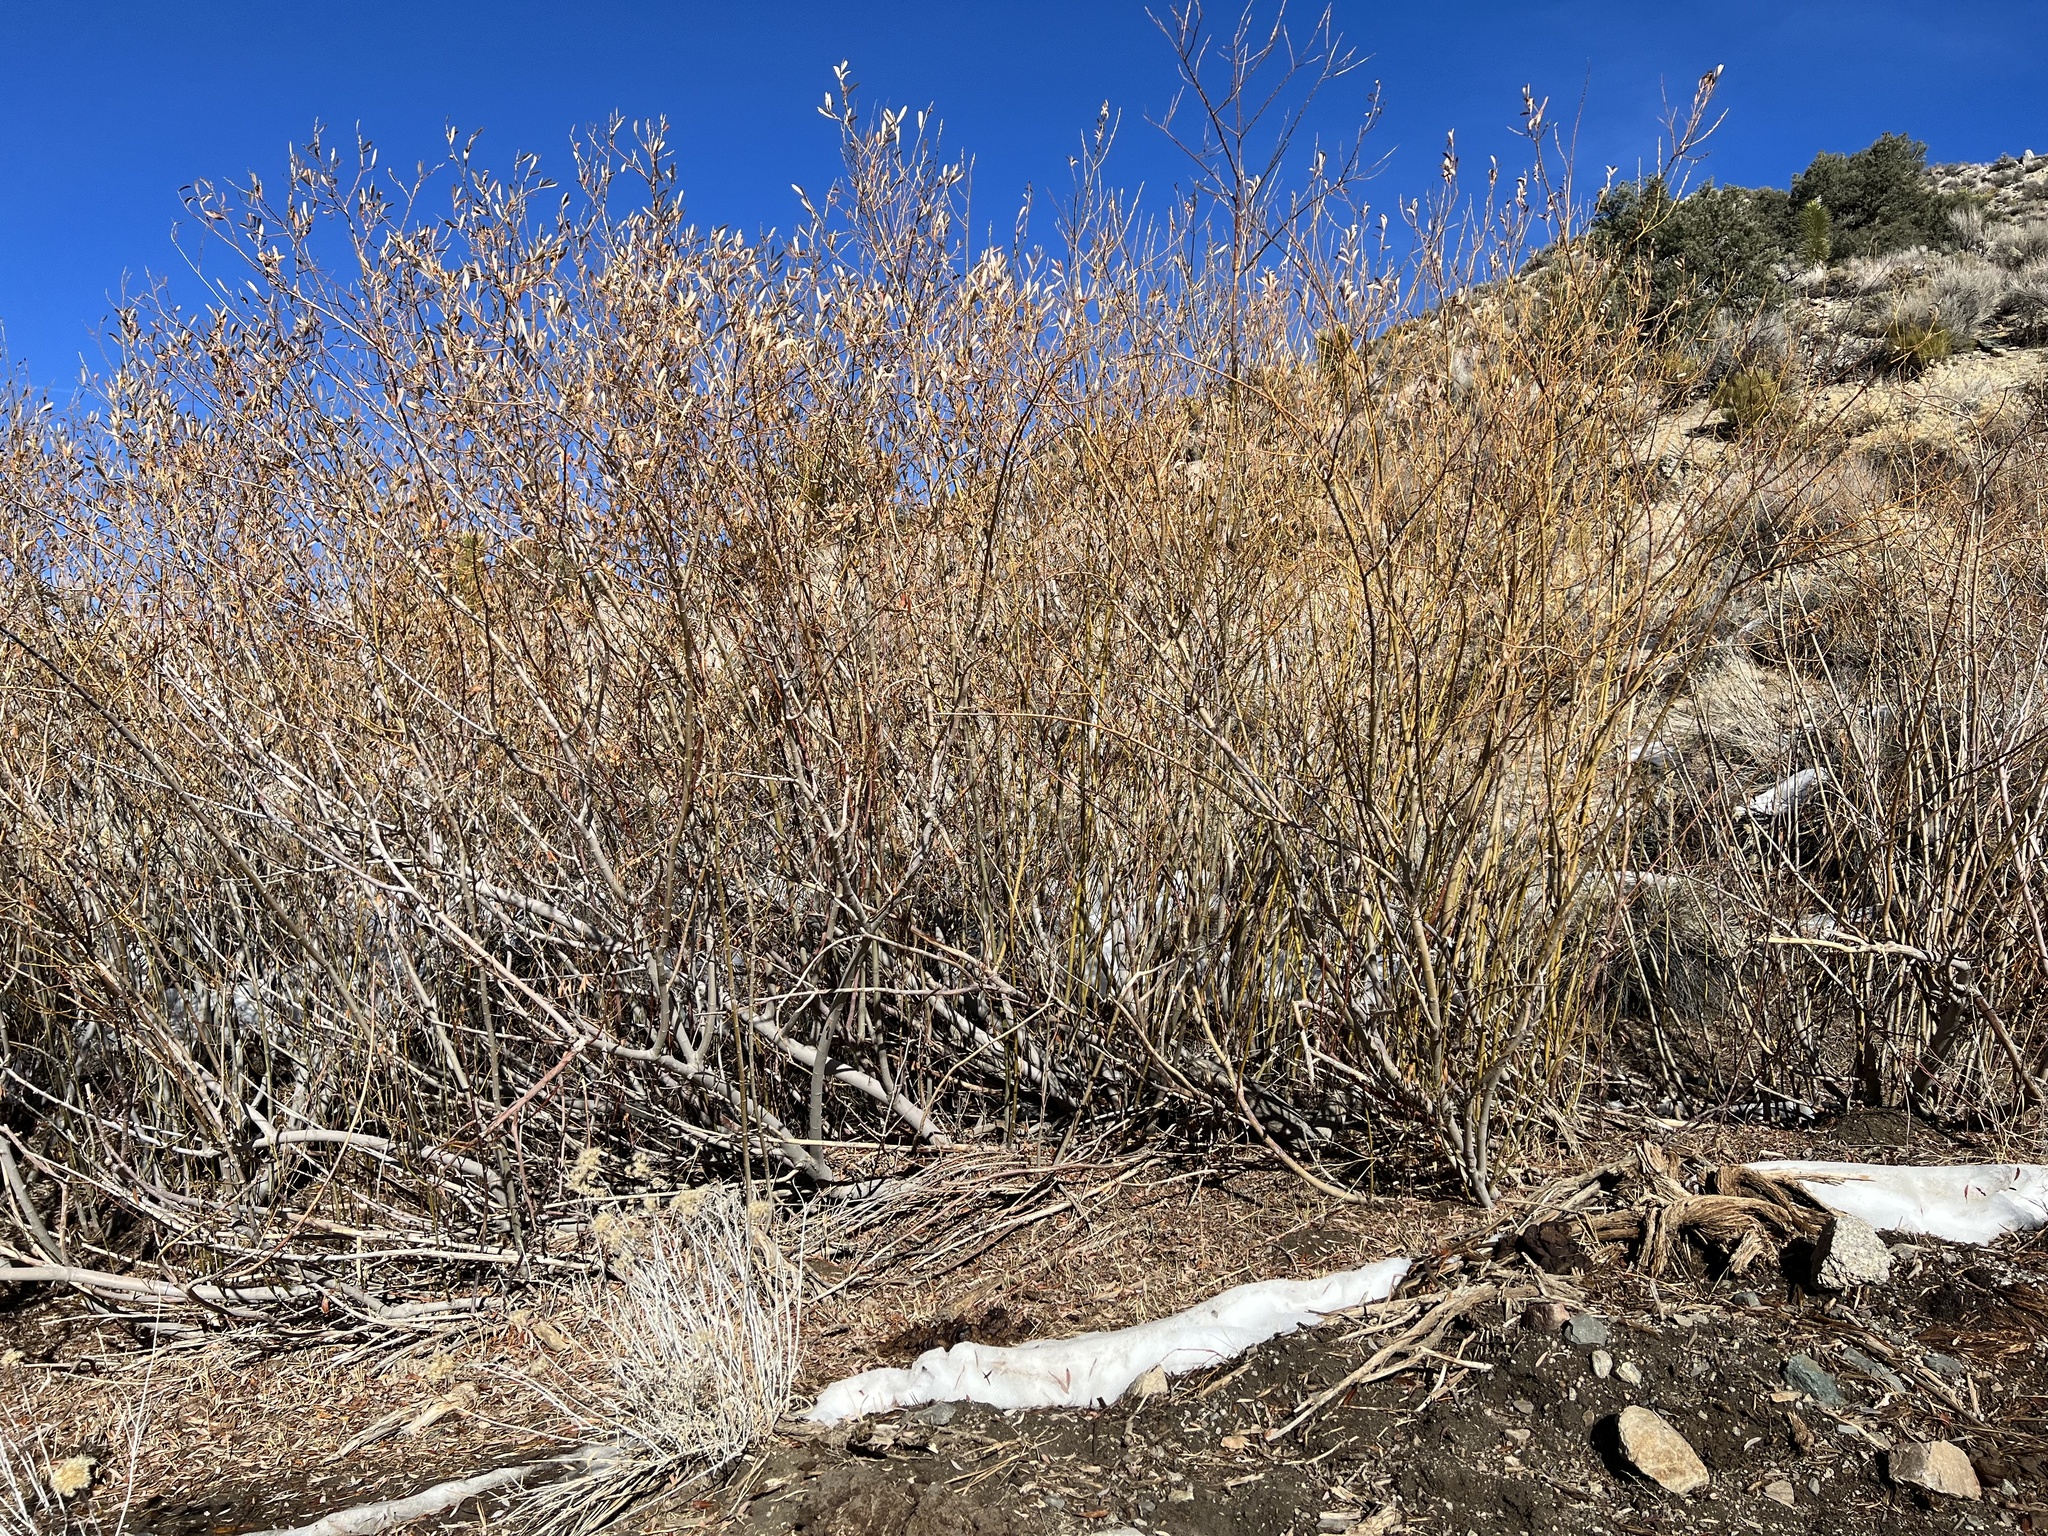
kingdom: Plantae
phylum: Tracheophyta
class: Magnoliopsida
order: Malpighiales
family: Salicaceae
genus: Salix
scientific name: Salix lasiolepis
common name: Arroyo willow
